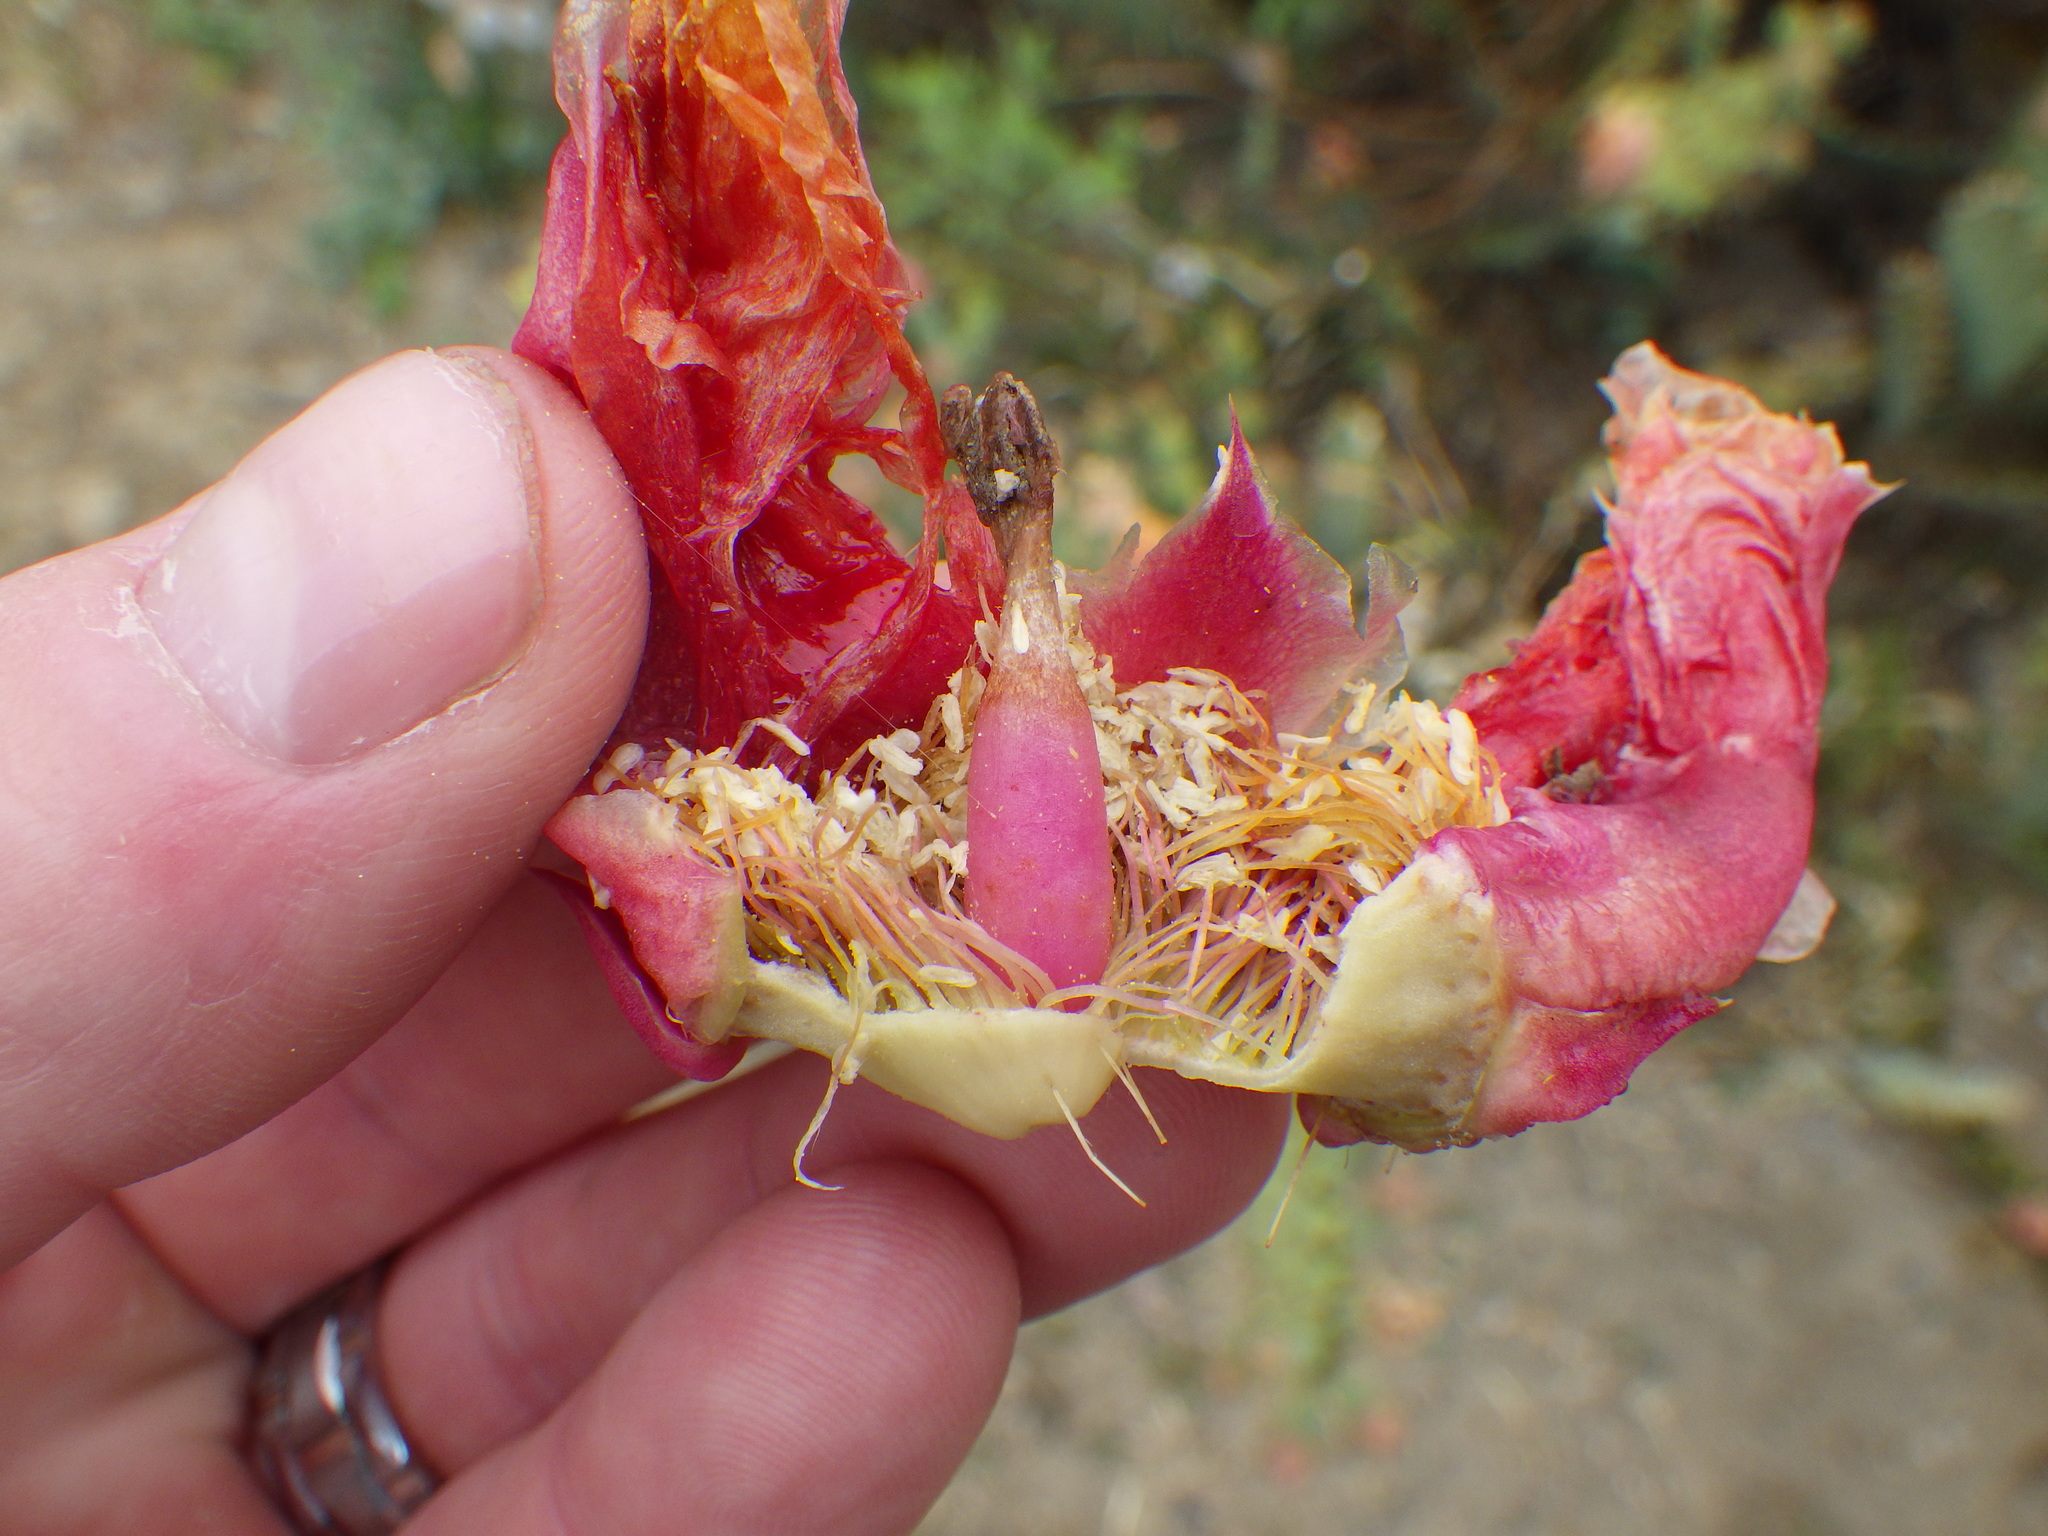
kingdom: Plantae
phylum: Tracheophyta
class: Magnoliopsida
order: Caryophyllales
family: Cactaceae
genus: Opuntia
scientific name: Opuntia vaseyi
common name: Apricot prickly-pear
